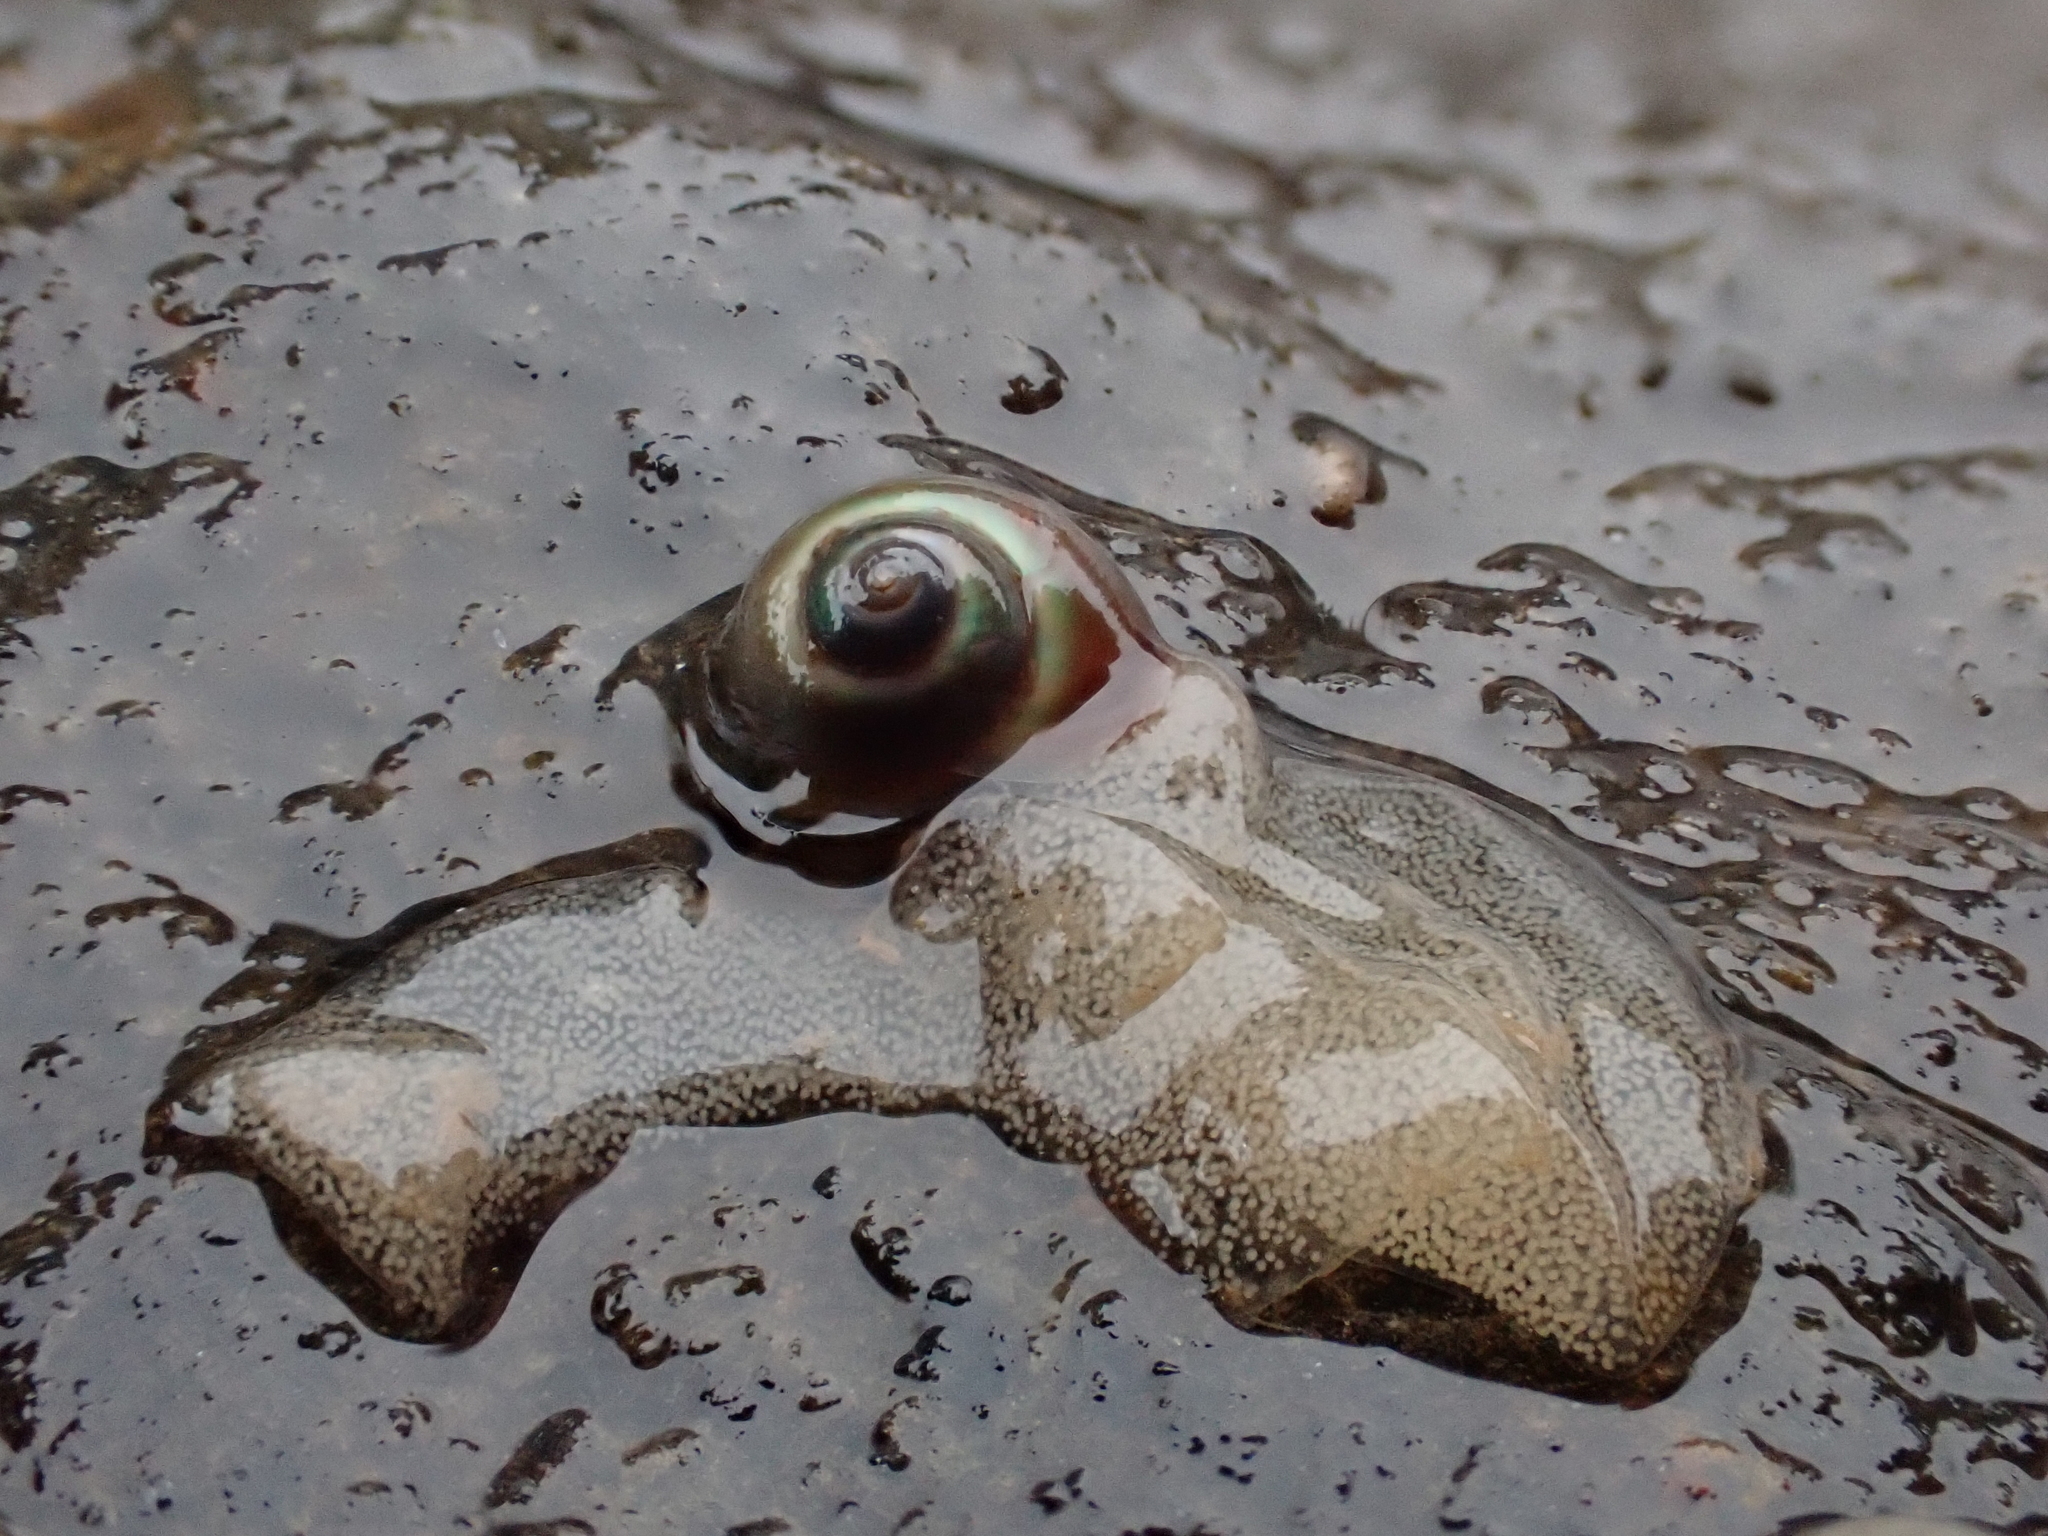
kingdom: Animalia
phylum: Mollusca
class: Gastropoda
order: Trochida
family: Margaritidae
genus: Margarites
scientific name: Margarites helicinus
